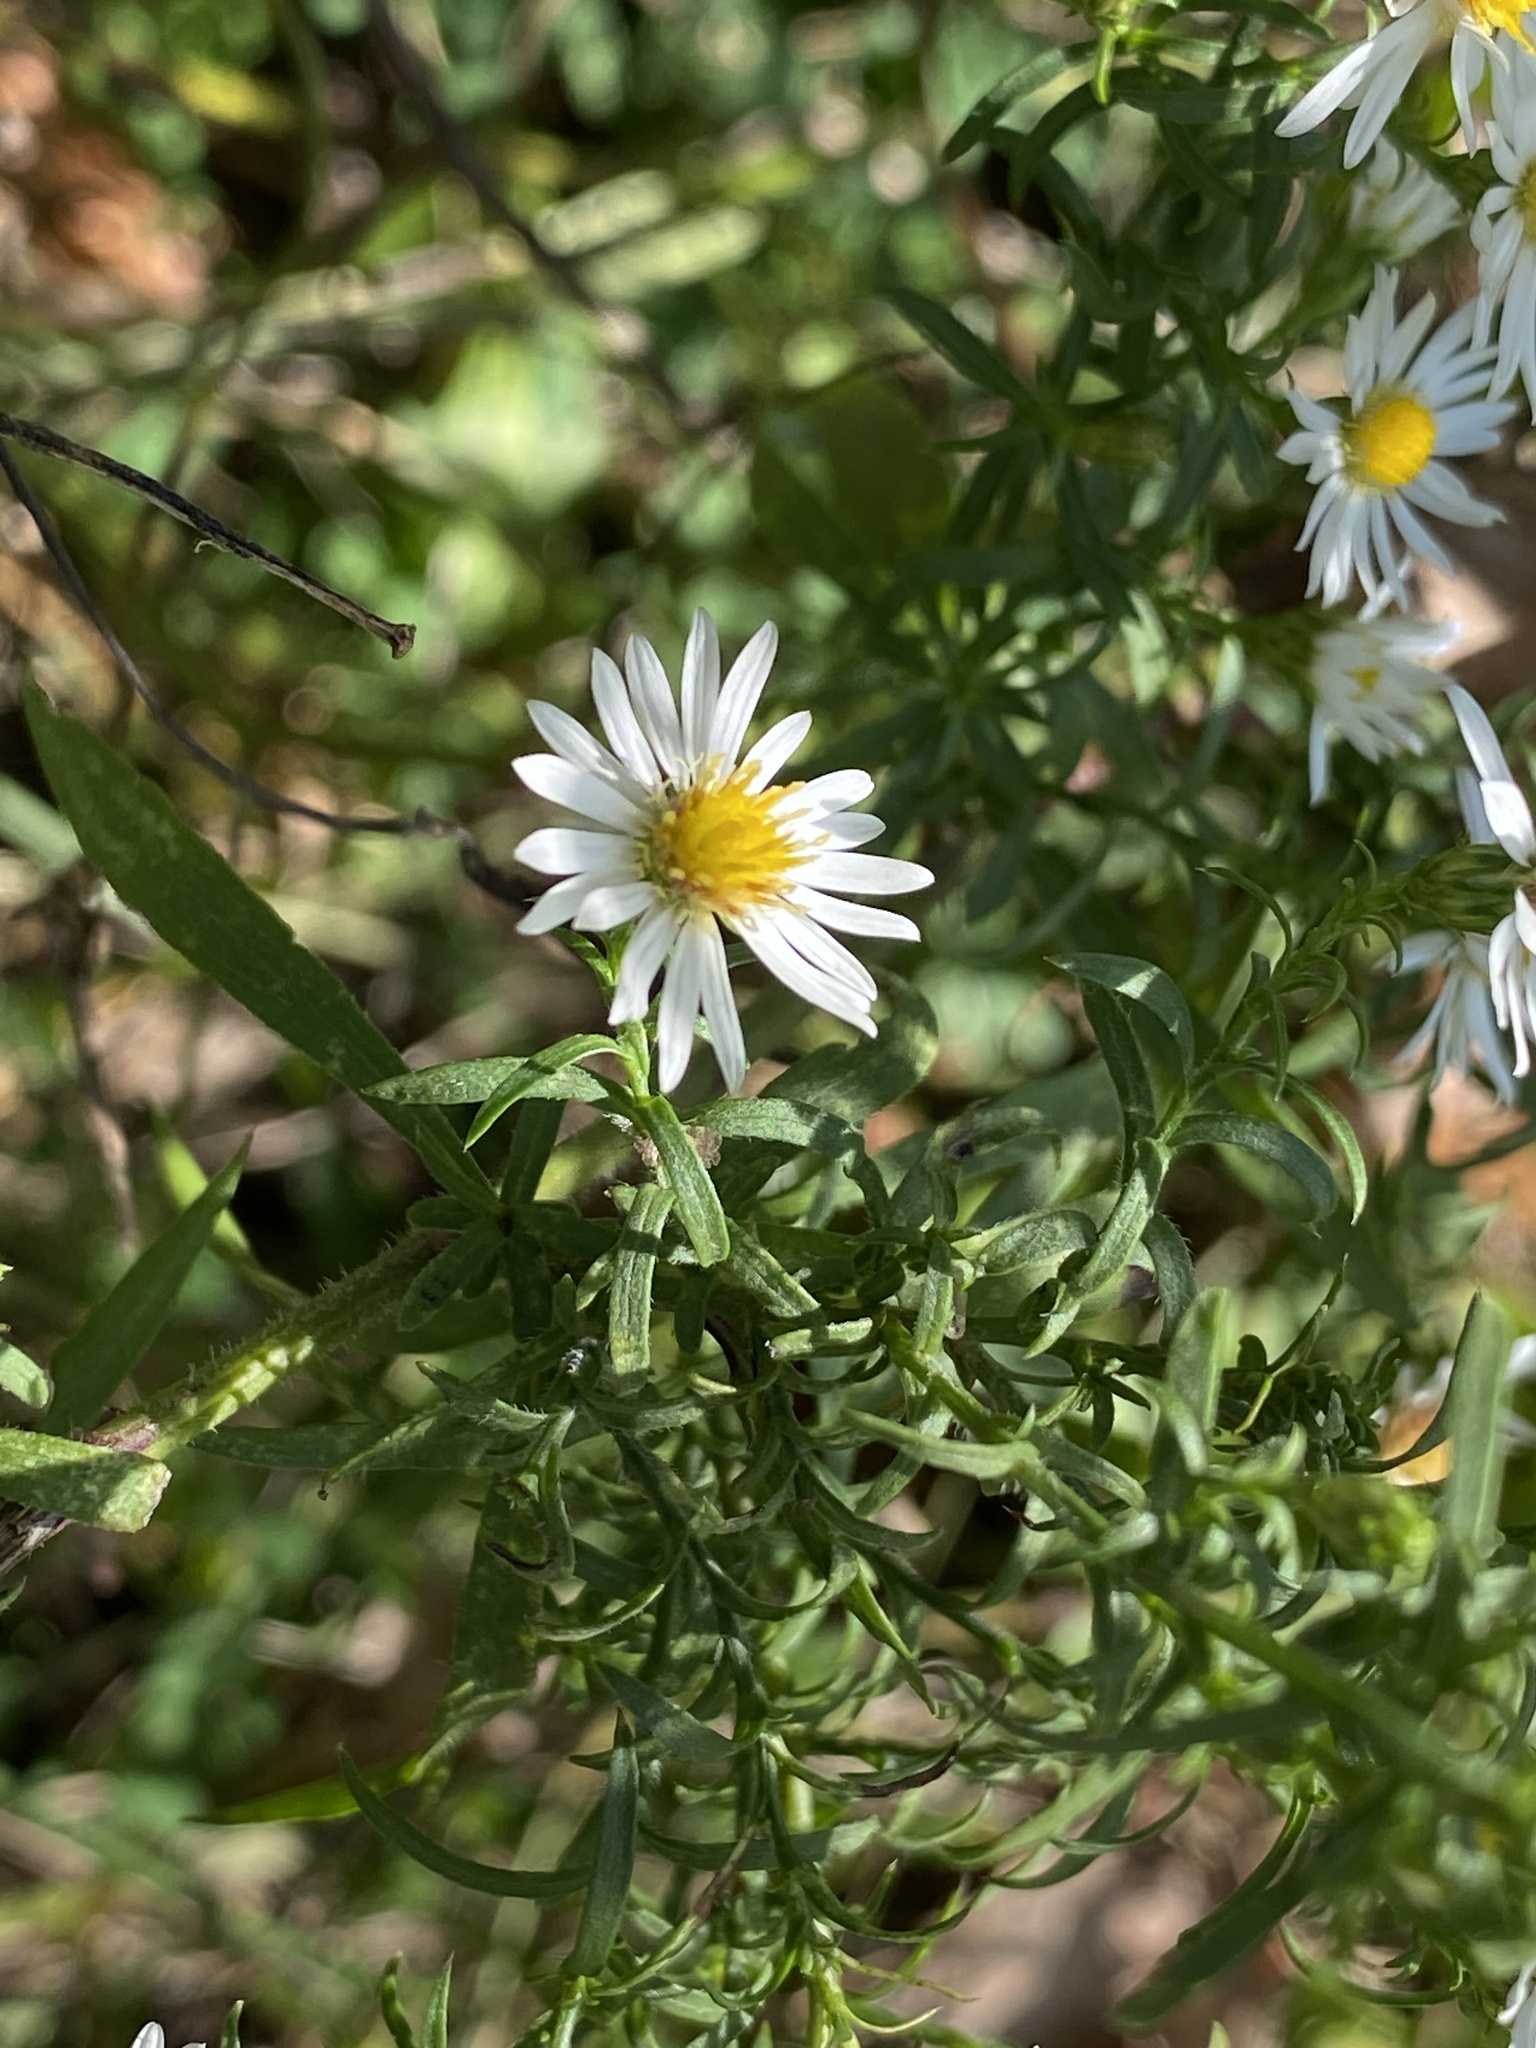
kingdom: Plantae
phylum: Tracheophyta
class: Magnoliopsida
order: Asterales
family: Asteraceae
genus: Symphyotrichum
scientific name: Symphyotrichum pilosum
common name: Awl aster
